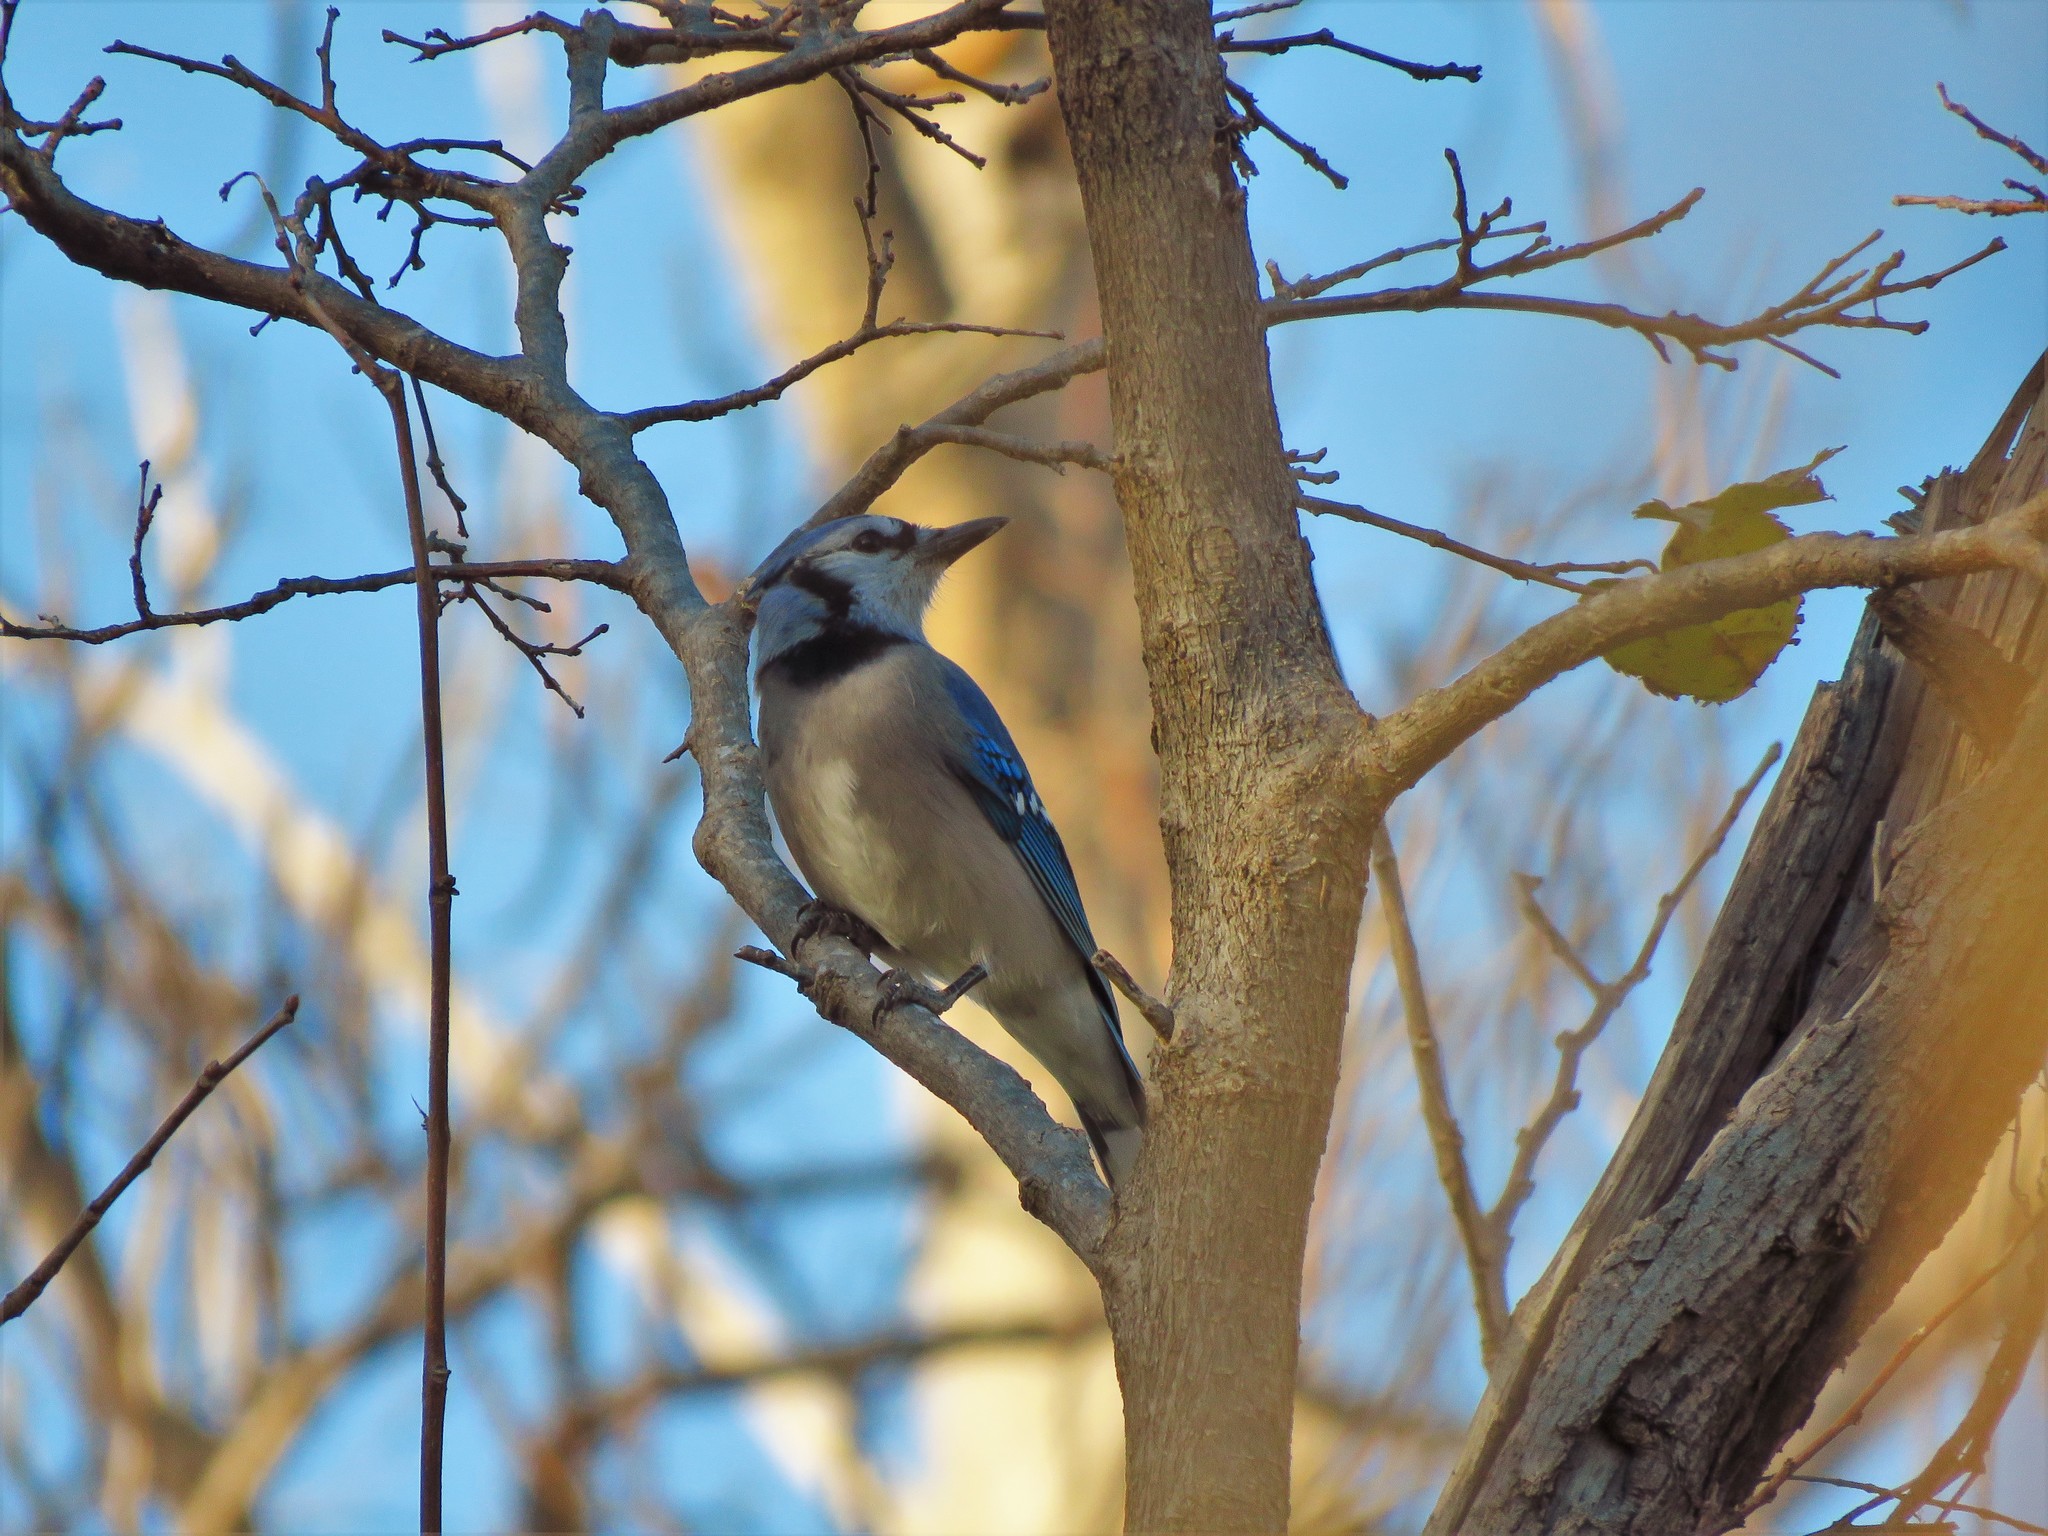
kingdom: Animalia
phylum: Chordata
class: Aves
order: Passeriformes
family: Corvidae
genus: Cyanocitta
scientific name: Cyanocitta cristata
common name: Blue jay
